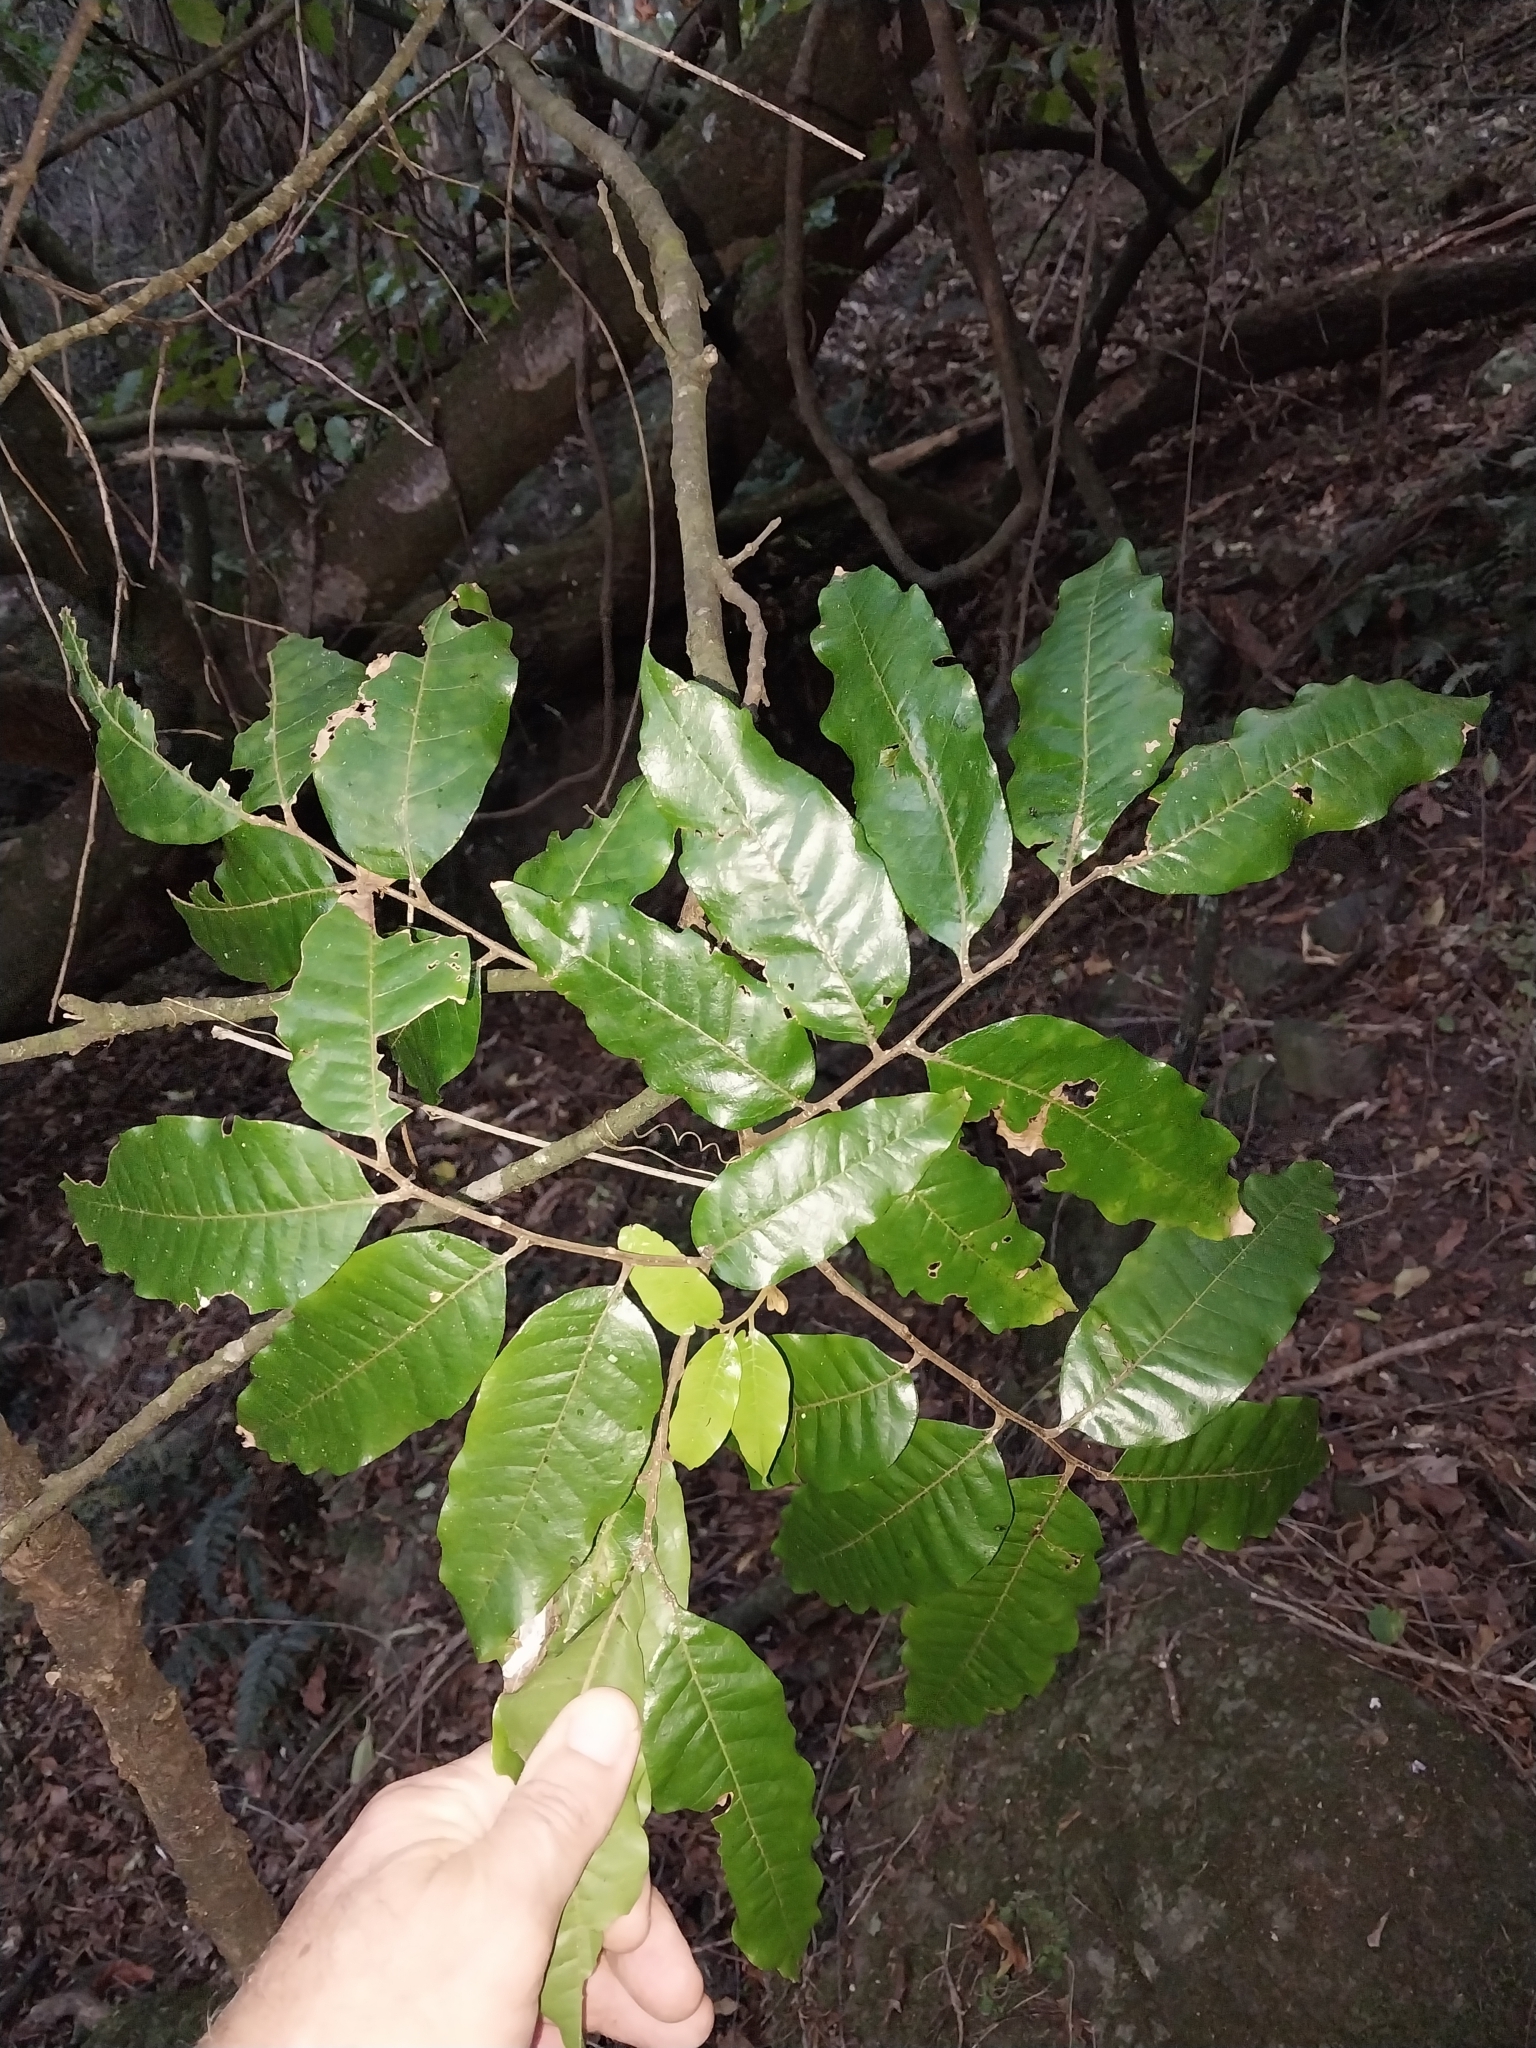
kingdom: Plantae
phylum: Tracheophyta
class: Magnoliopsida
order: Sapindales
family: Sapindaceae
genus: Alectryon
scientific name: Alectryon excelsus
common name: Three kings titoki
